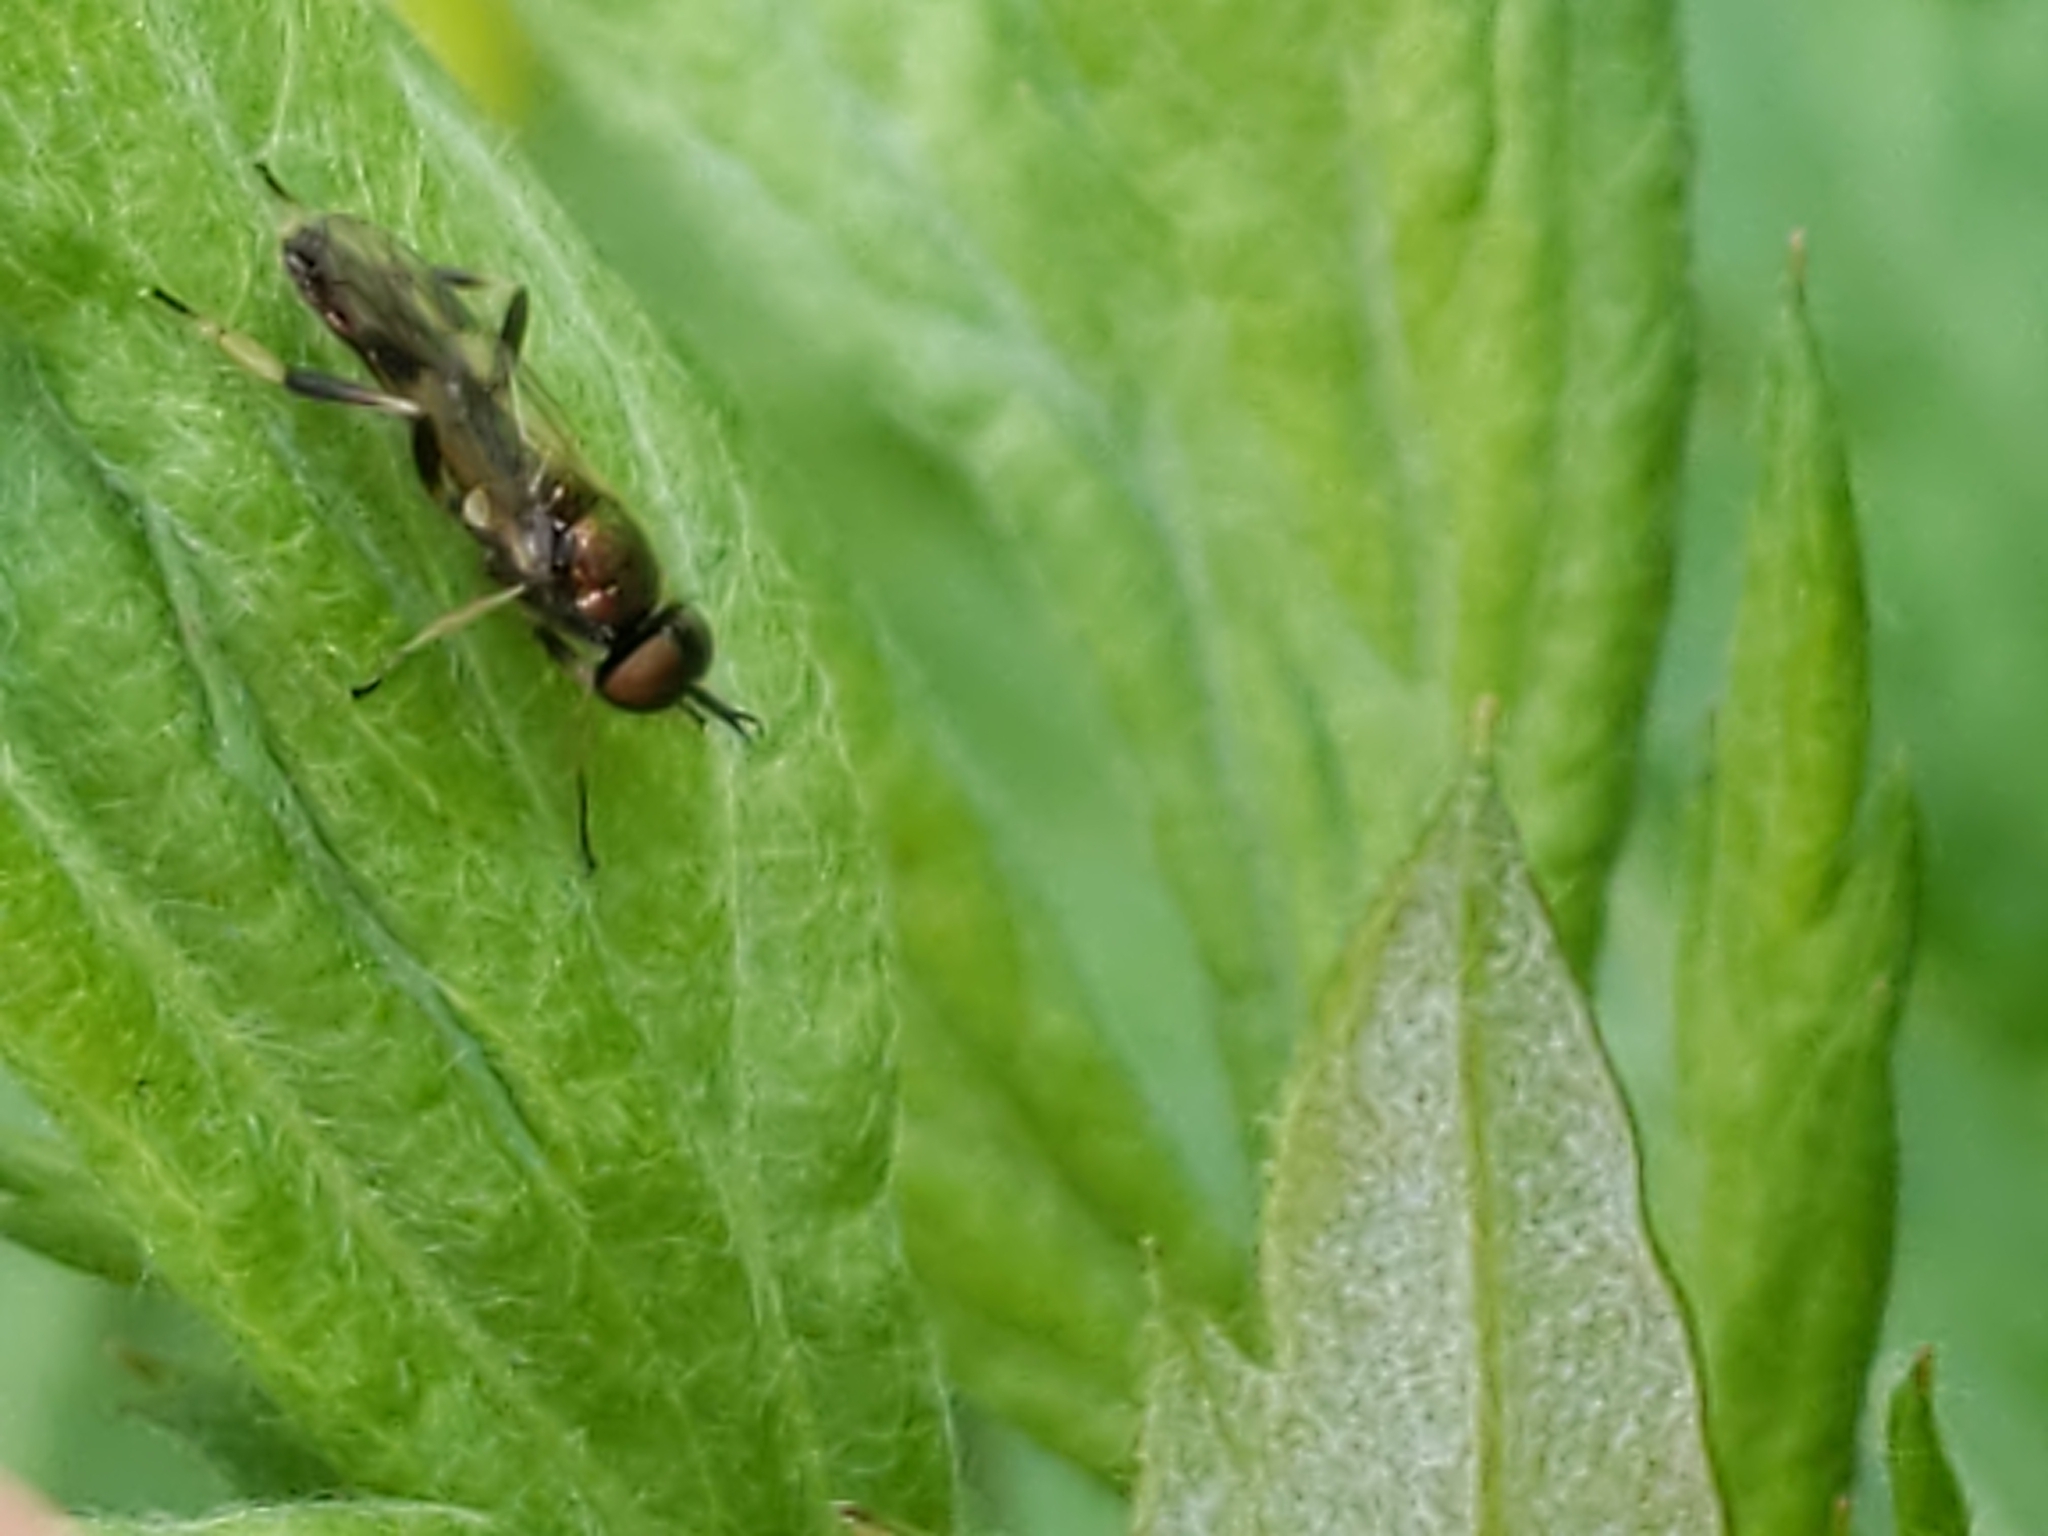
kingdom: Animalia
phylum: Arthropoda
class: Insecta
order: Diptera
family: Stratiomyidae
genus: Actina
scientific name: Actina viridis
